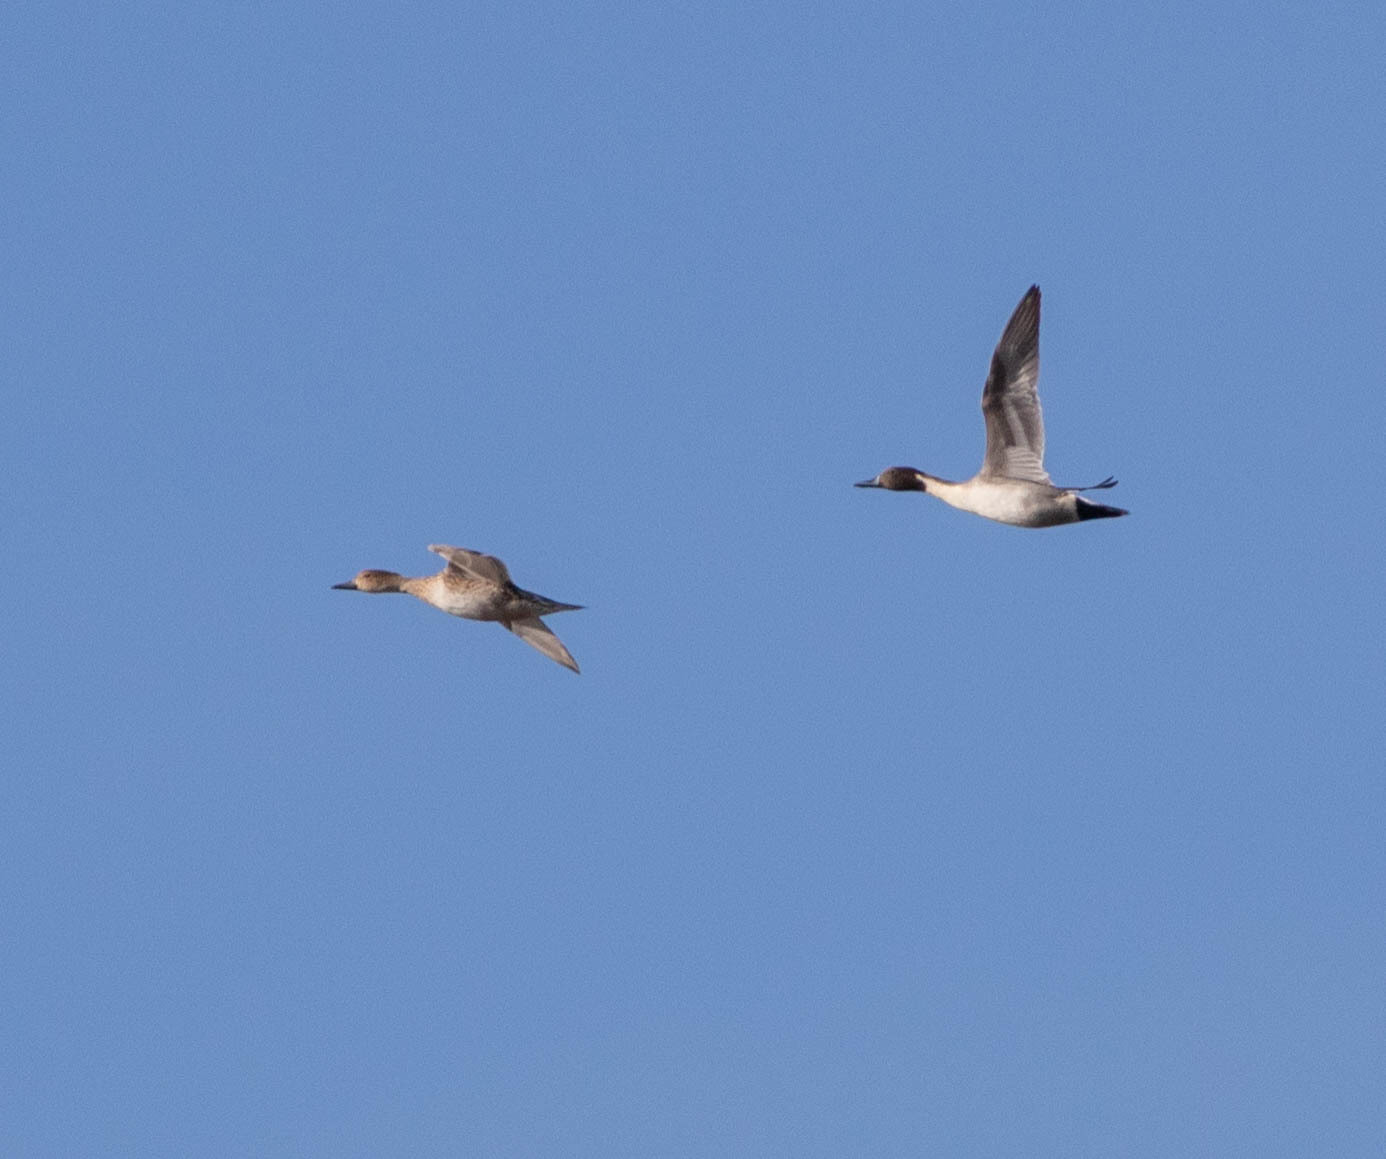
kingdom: Animalia
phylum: Chordata
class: Aves
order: Anseriformes
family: Anatidae
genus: Anas
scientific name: Anas acuta
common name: Northern pintail
